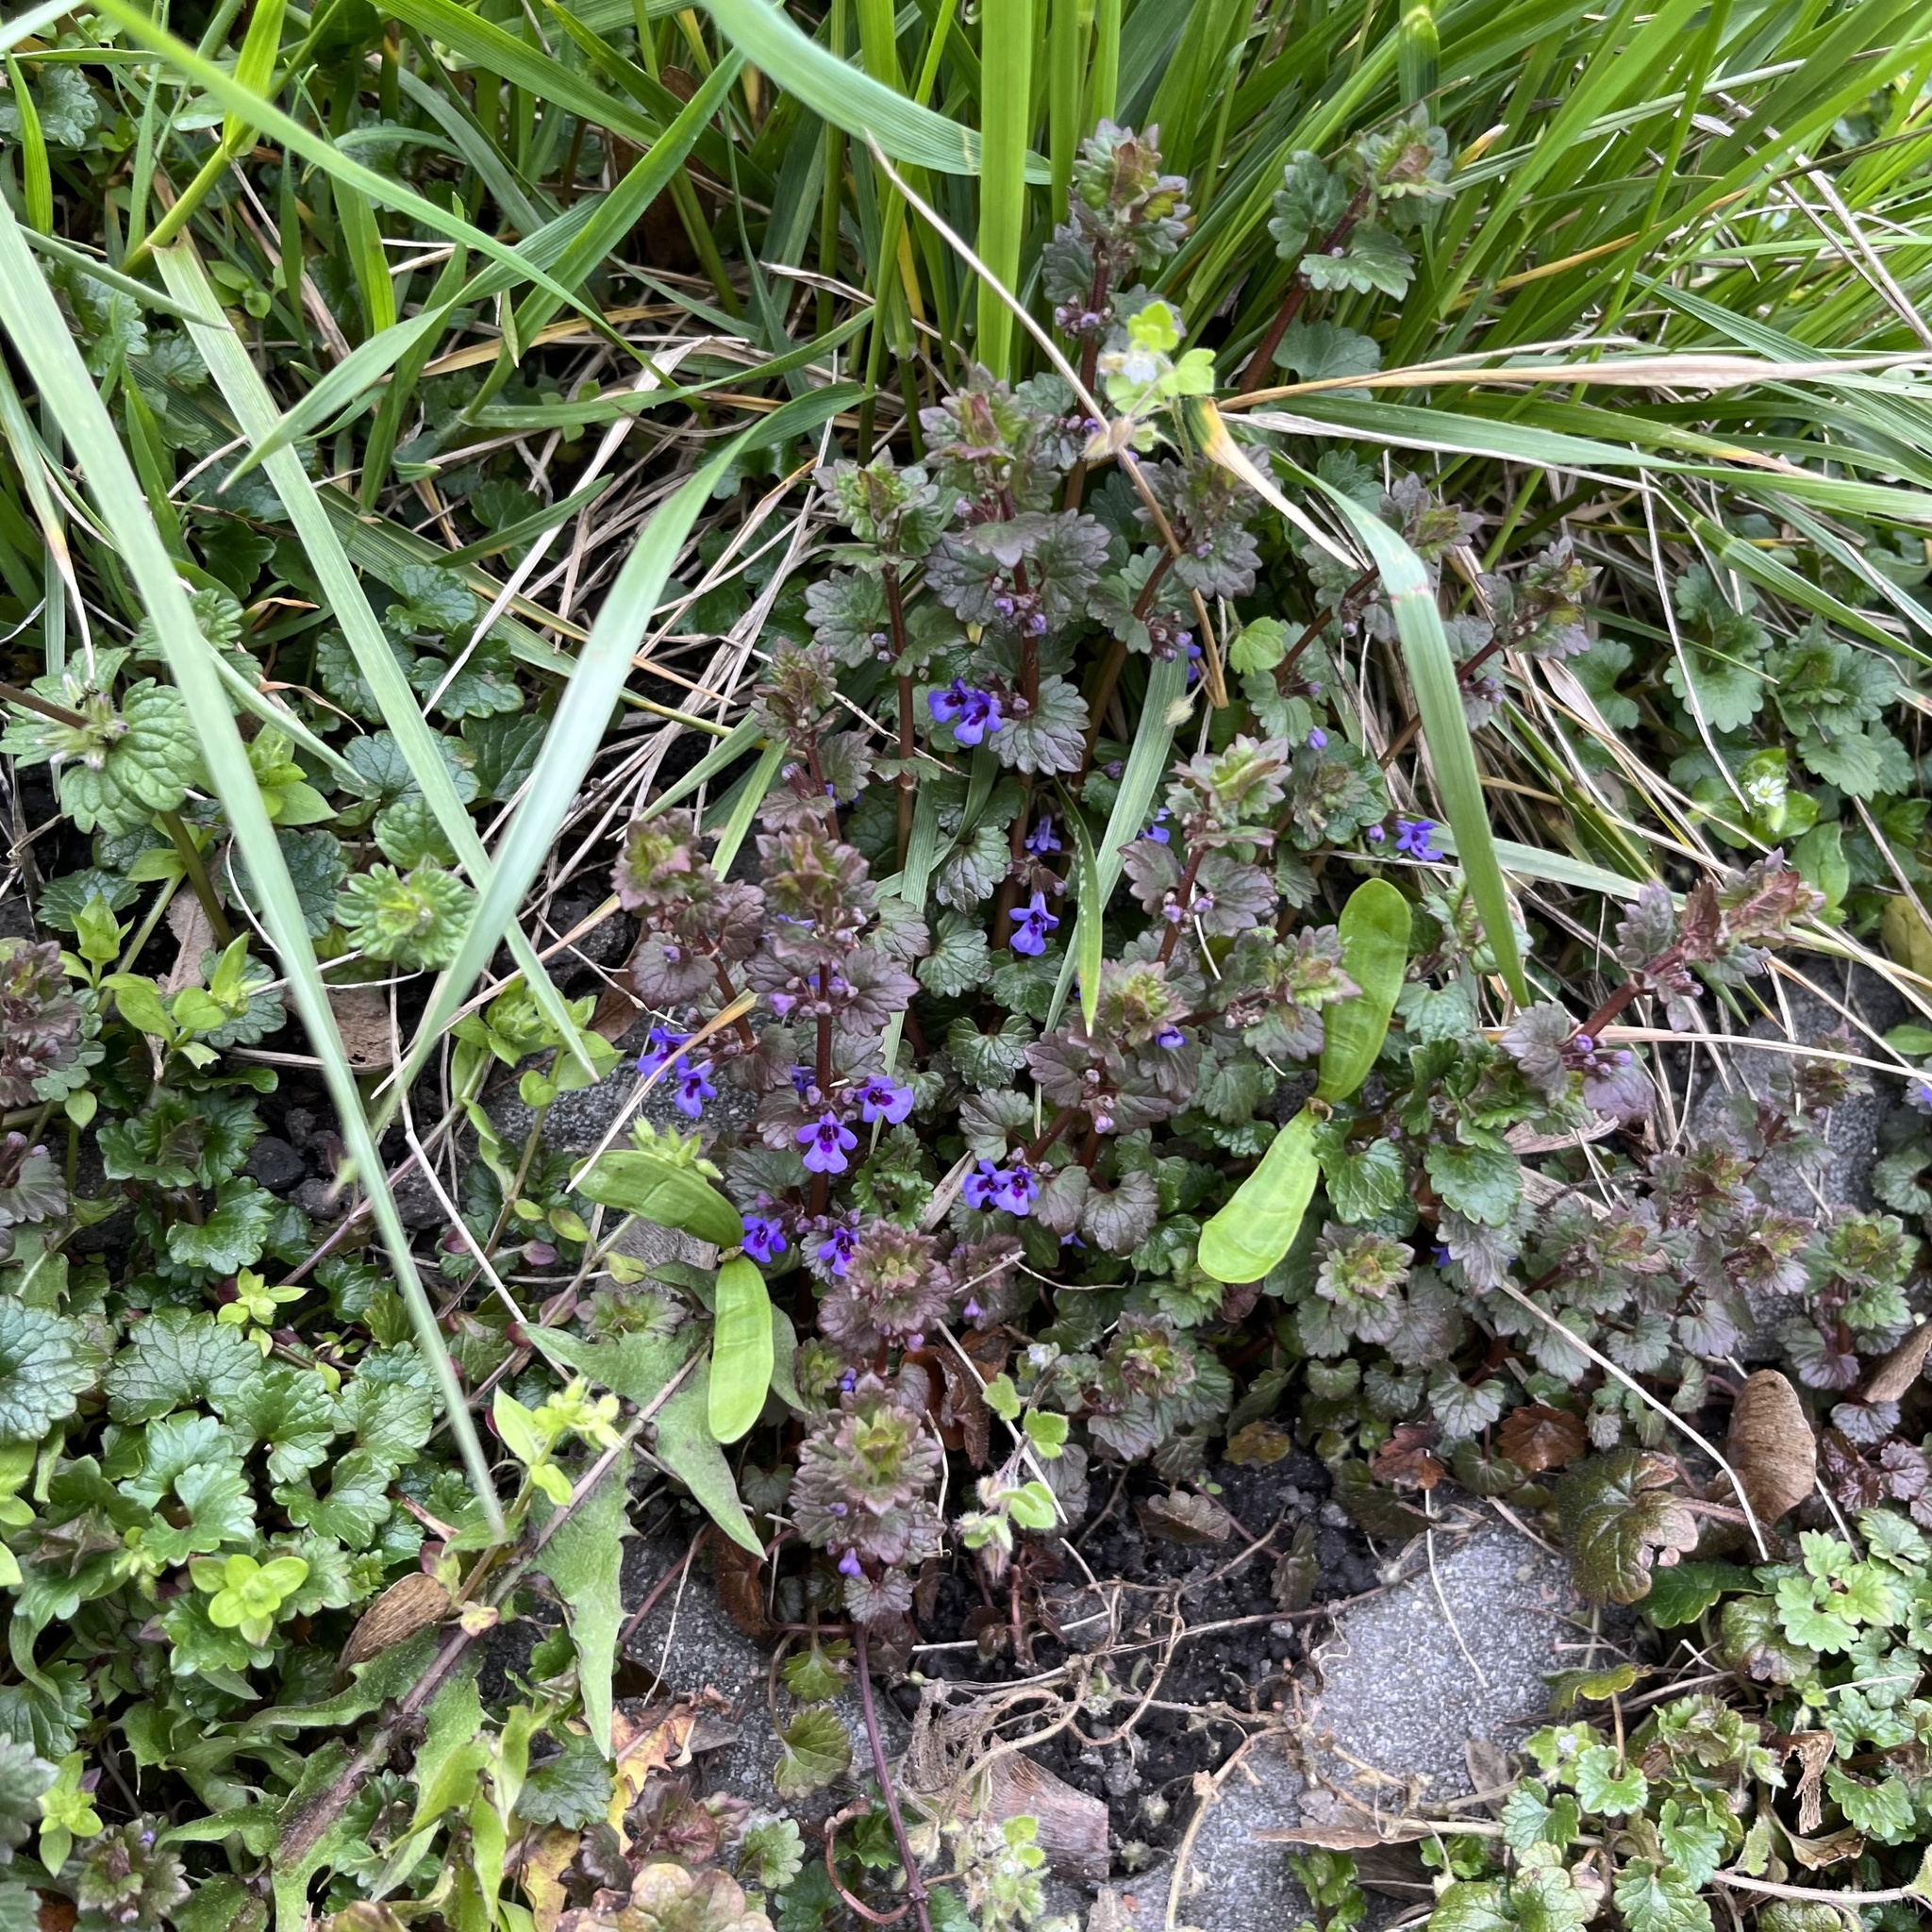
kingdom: Plantae
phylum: Tracheophyta
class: Magnoliopsida
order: Lamiales
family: Lamiaceae
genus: Glechoma
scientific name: Glechoma hederacea
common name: Ground ivy
